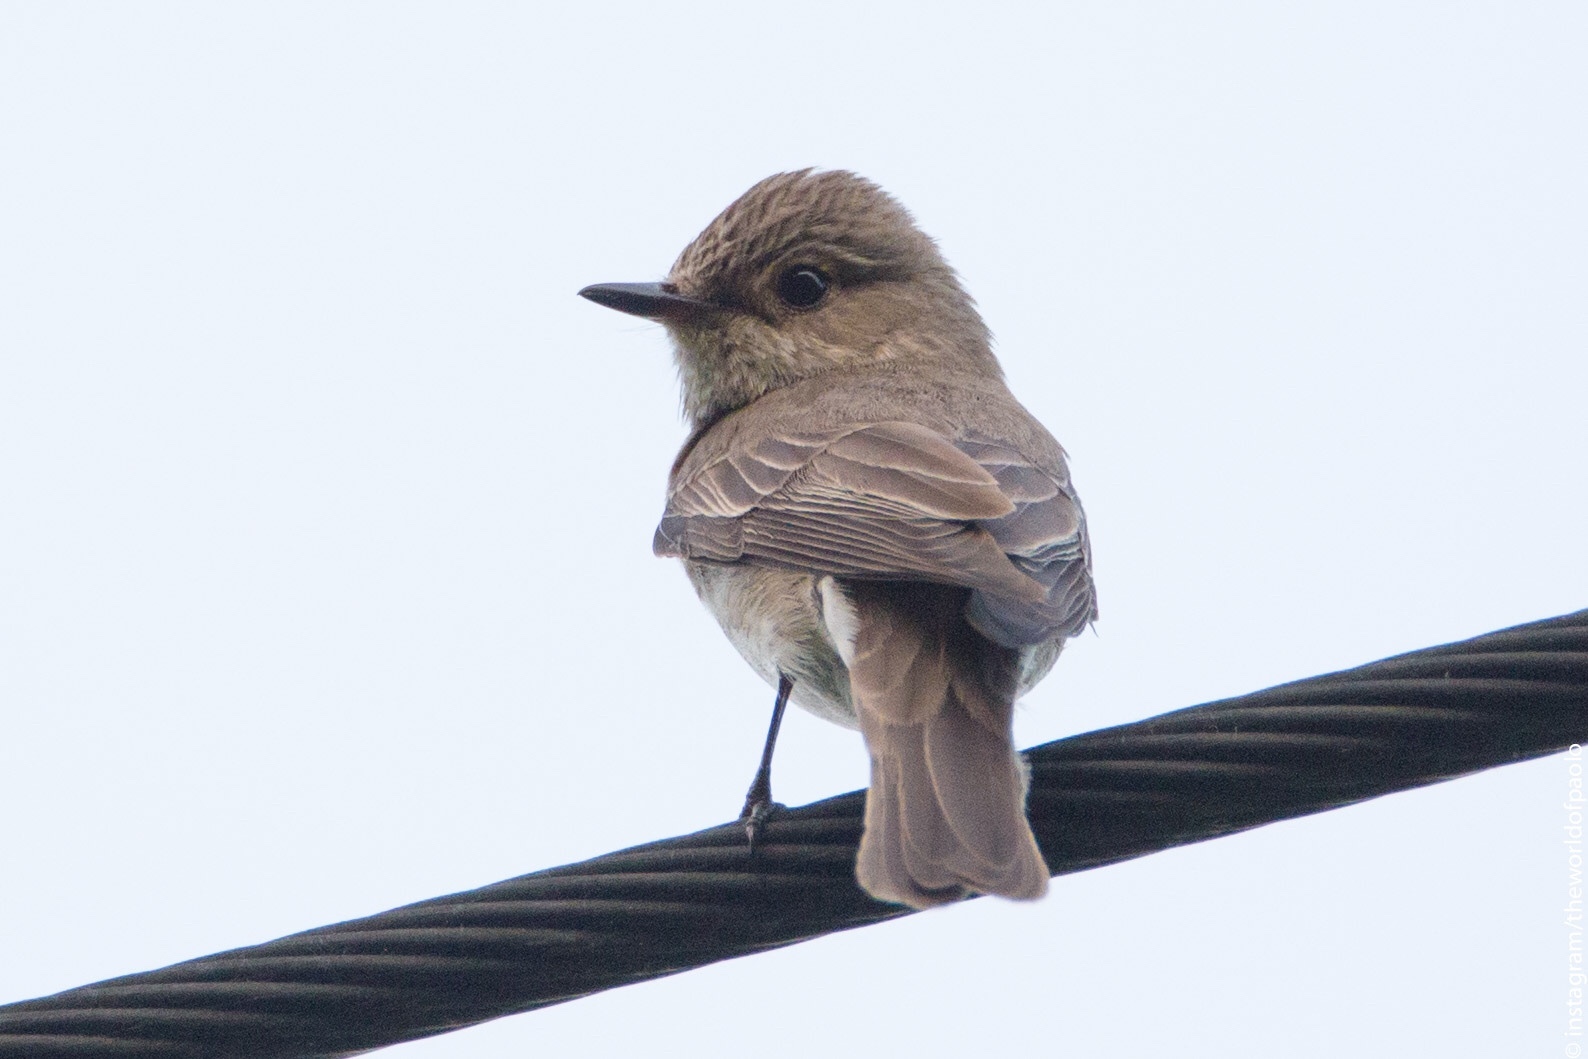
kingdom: Animalia
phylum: Chordata
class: Aves
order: Passeriformes
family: Muscicapidae
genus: Muscicapa
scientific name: Muscicapa striata
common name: Spotted flycatcher
